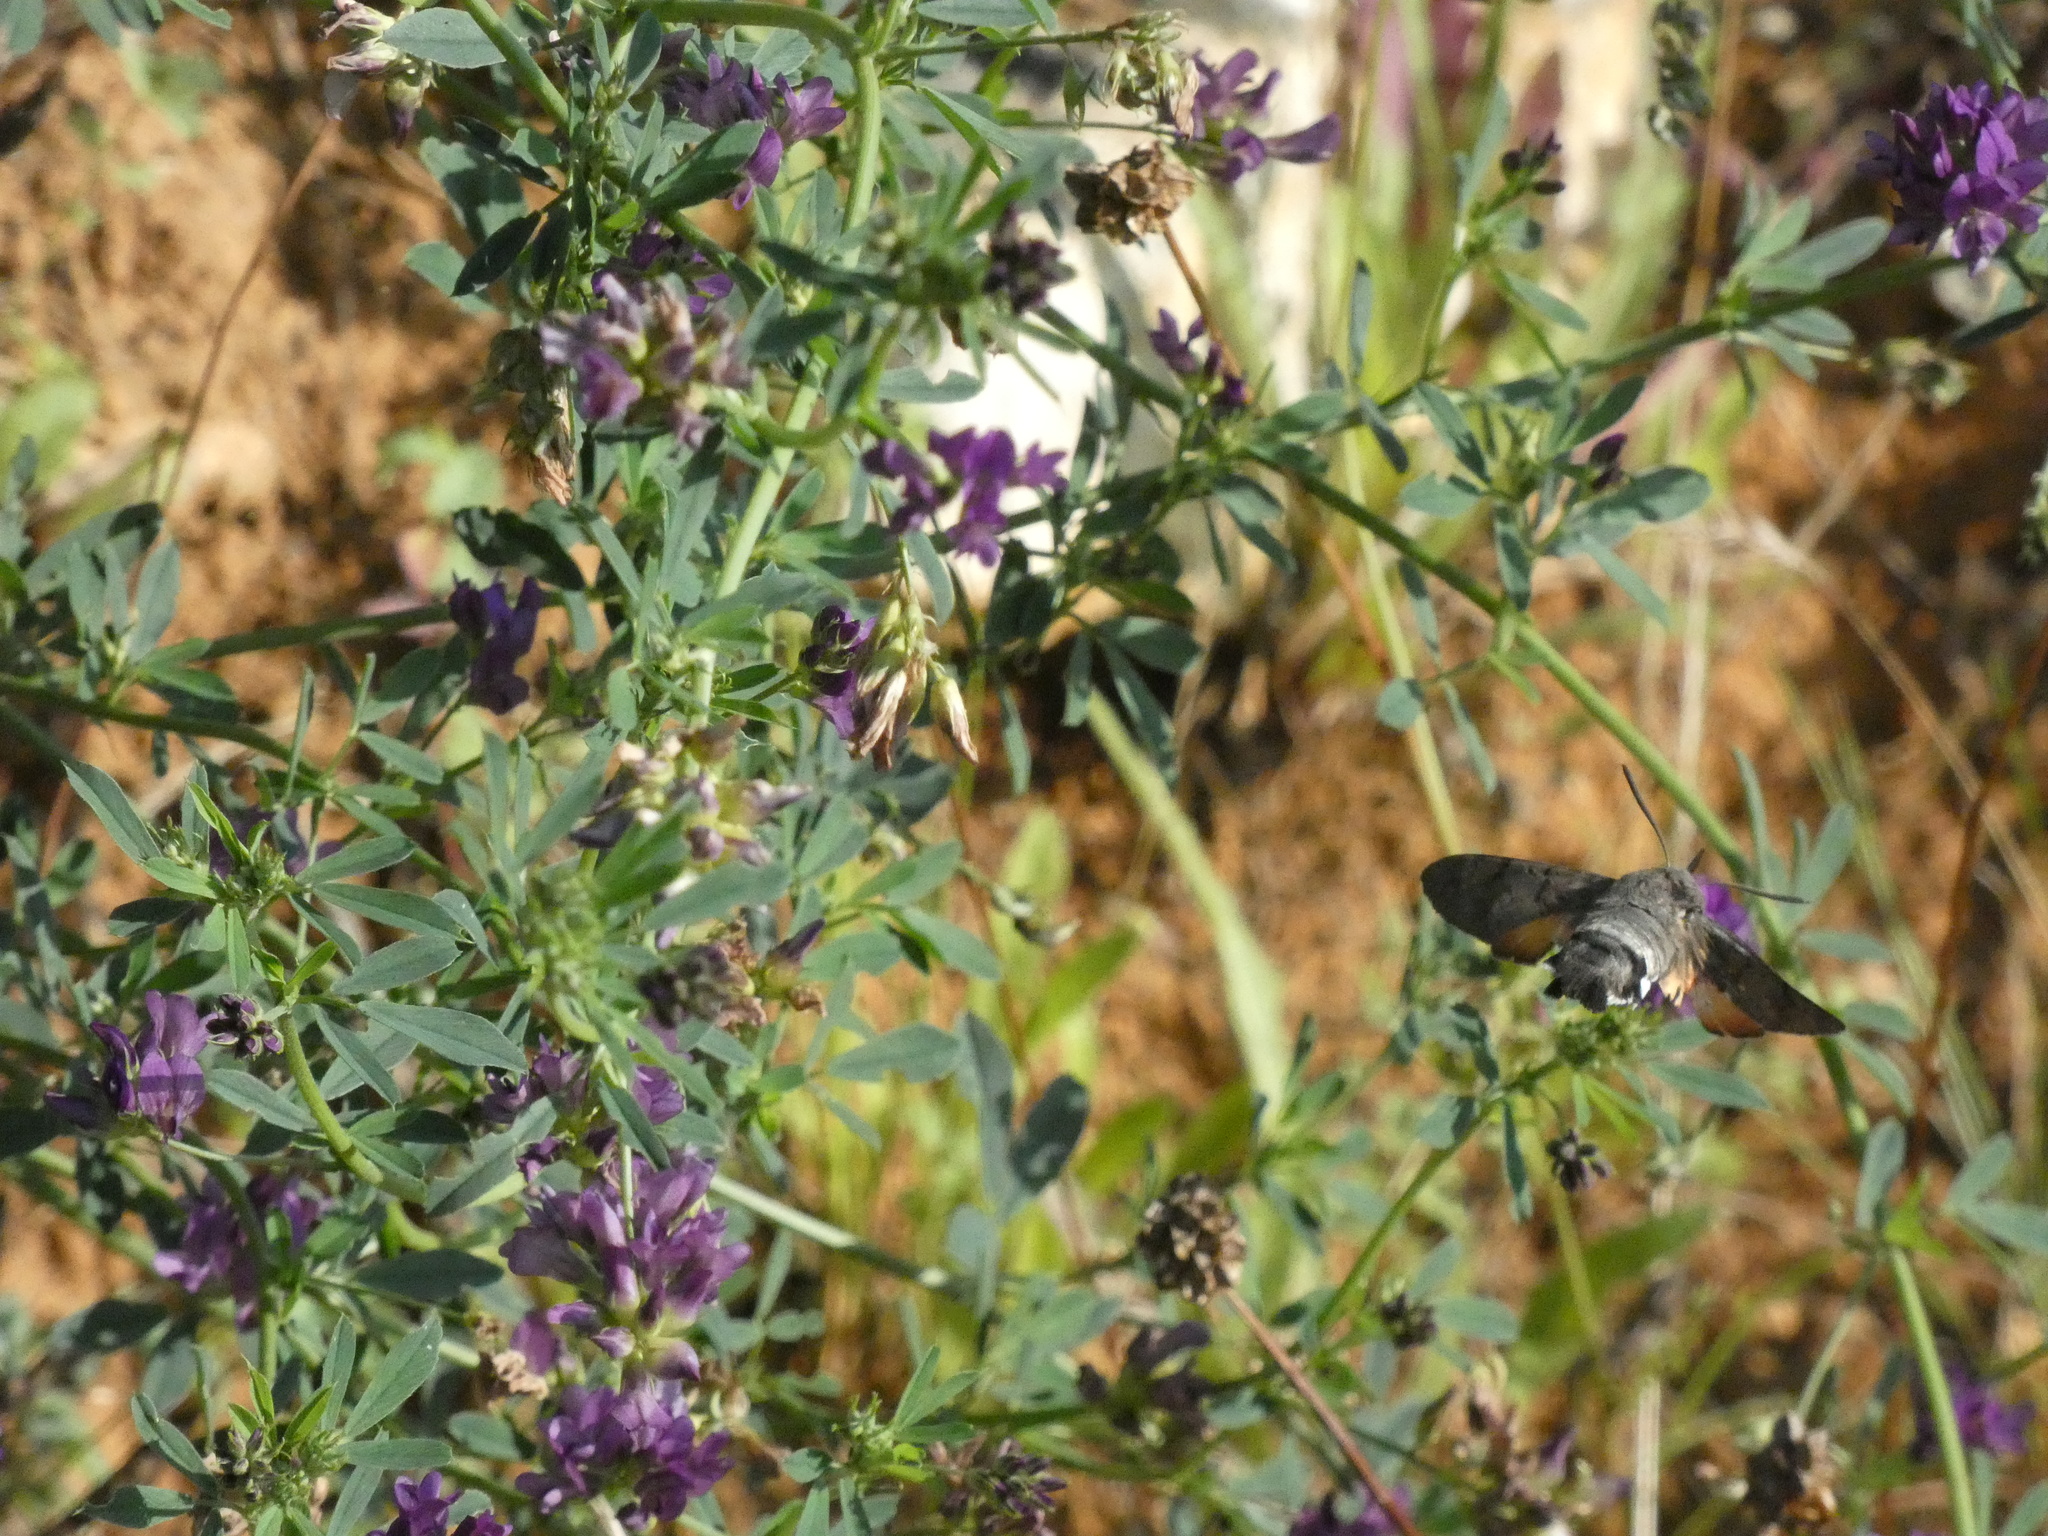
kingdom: Animalia
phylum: Arthropoda
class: Insecta
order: Lepidoptera
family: Sphingidae
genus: Macroglossum
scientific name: Macroglossum stellatarum
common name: Humming-bird hawk-moth
